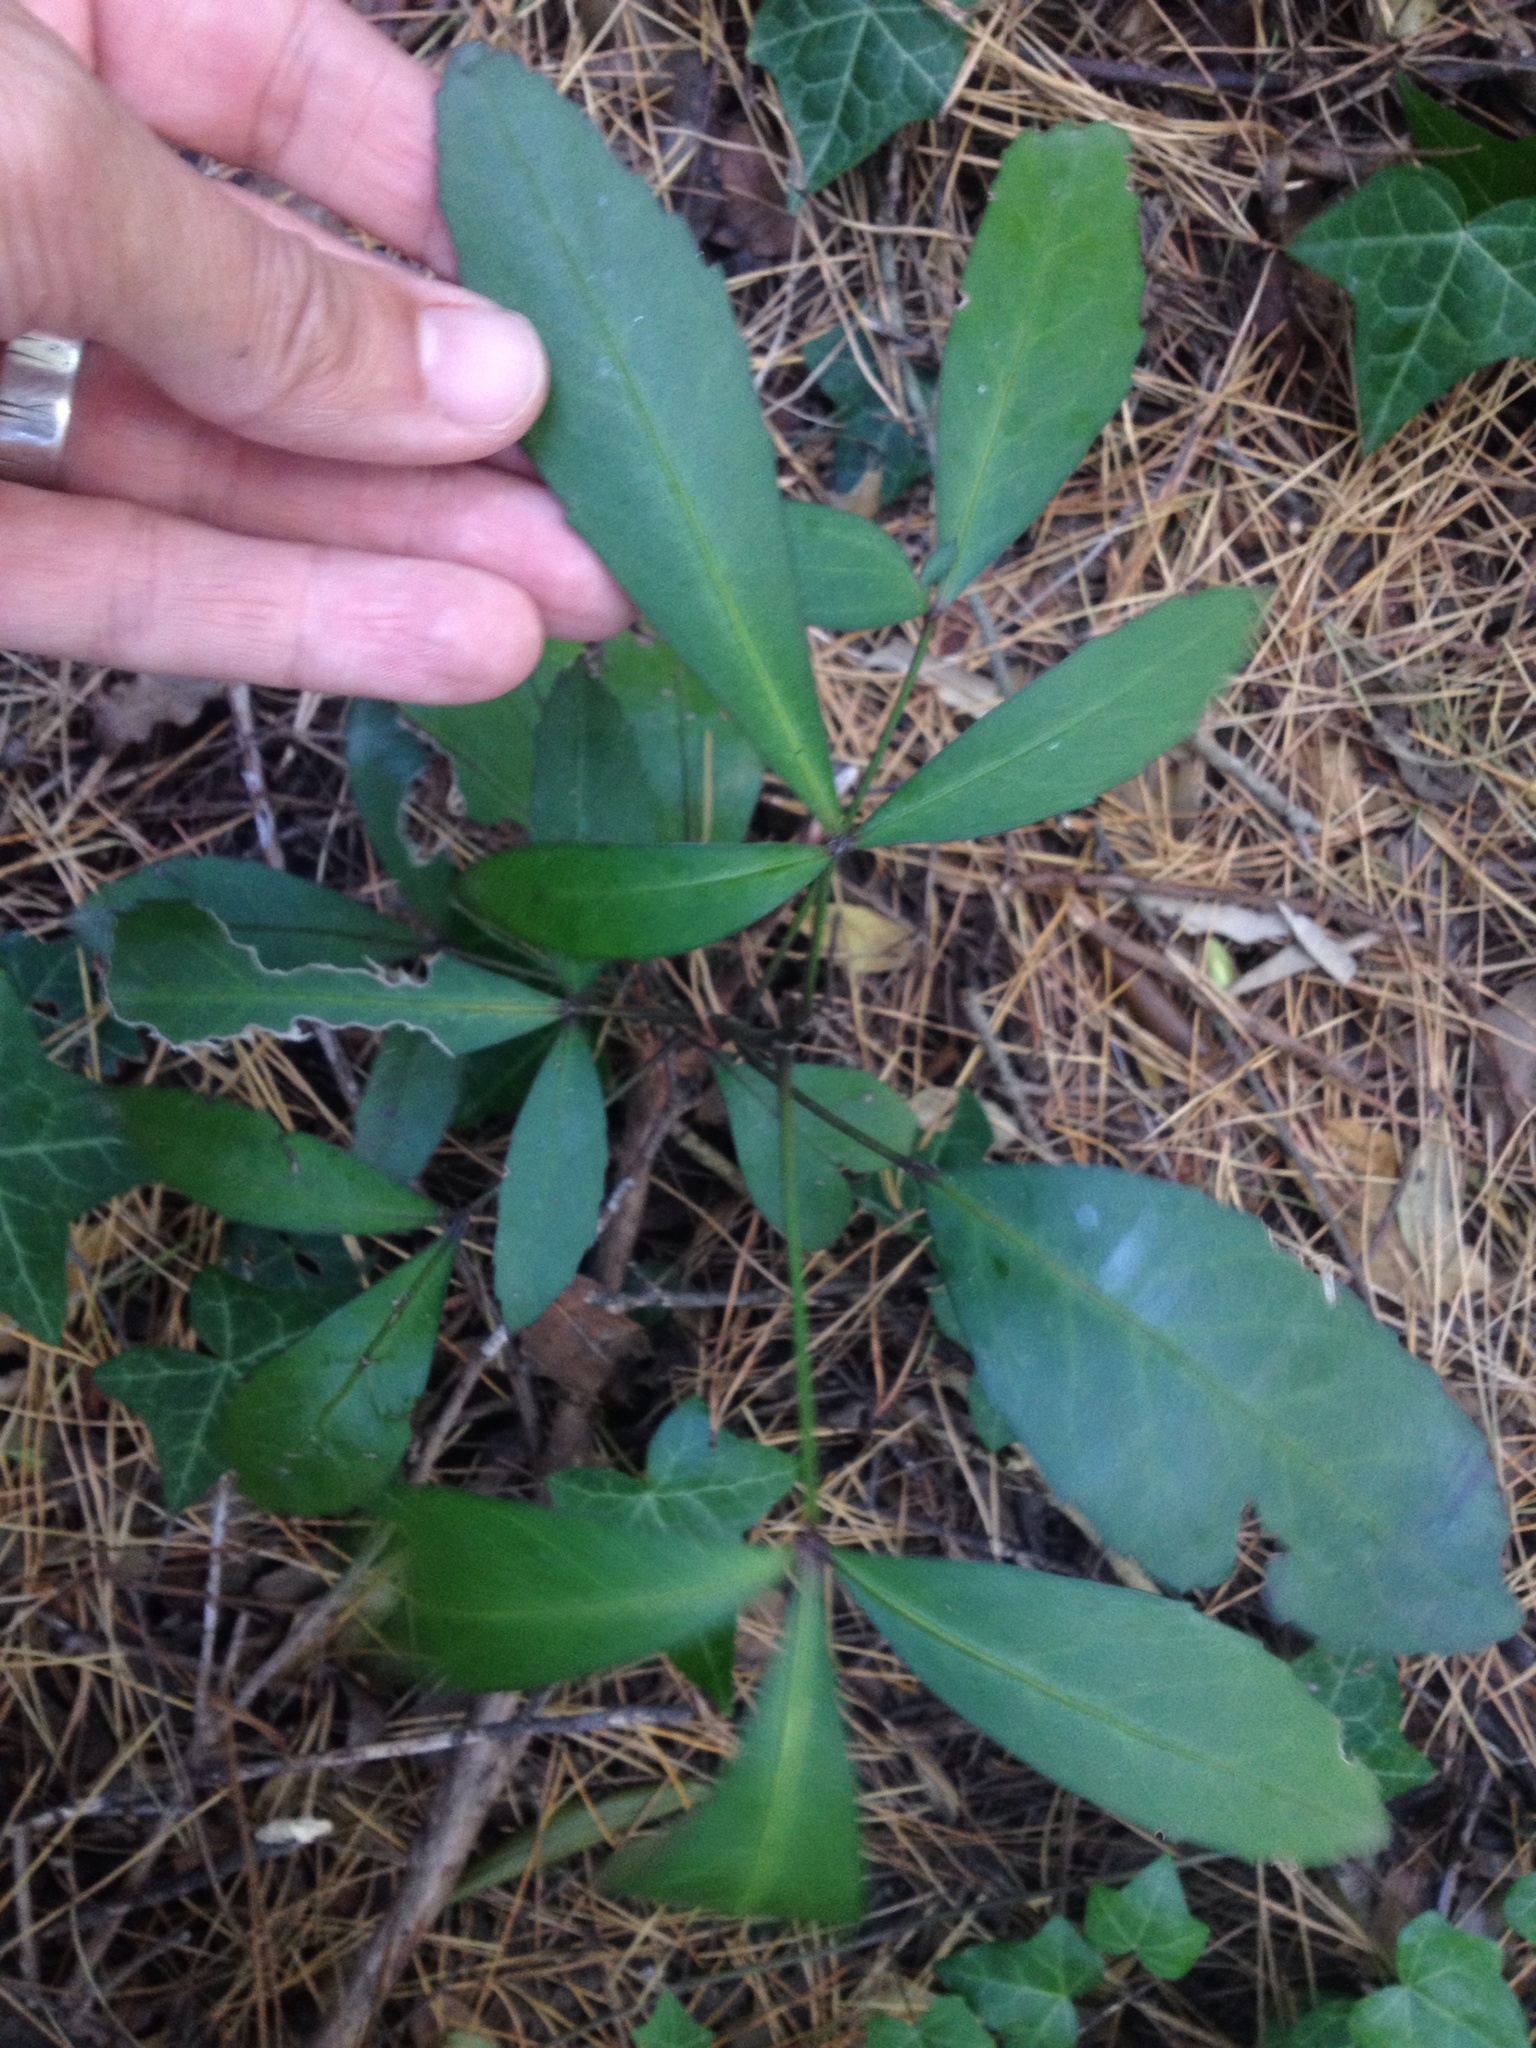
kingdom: Plantae
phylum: Tracheophyta
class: Magnoliopsida
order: Apiales
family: Araliaceae
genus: Pseudopanax
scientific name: Pseudopanax
